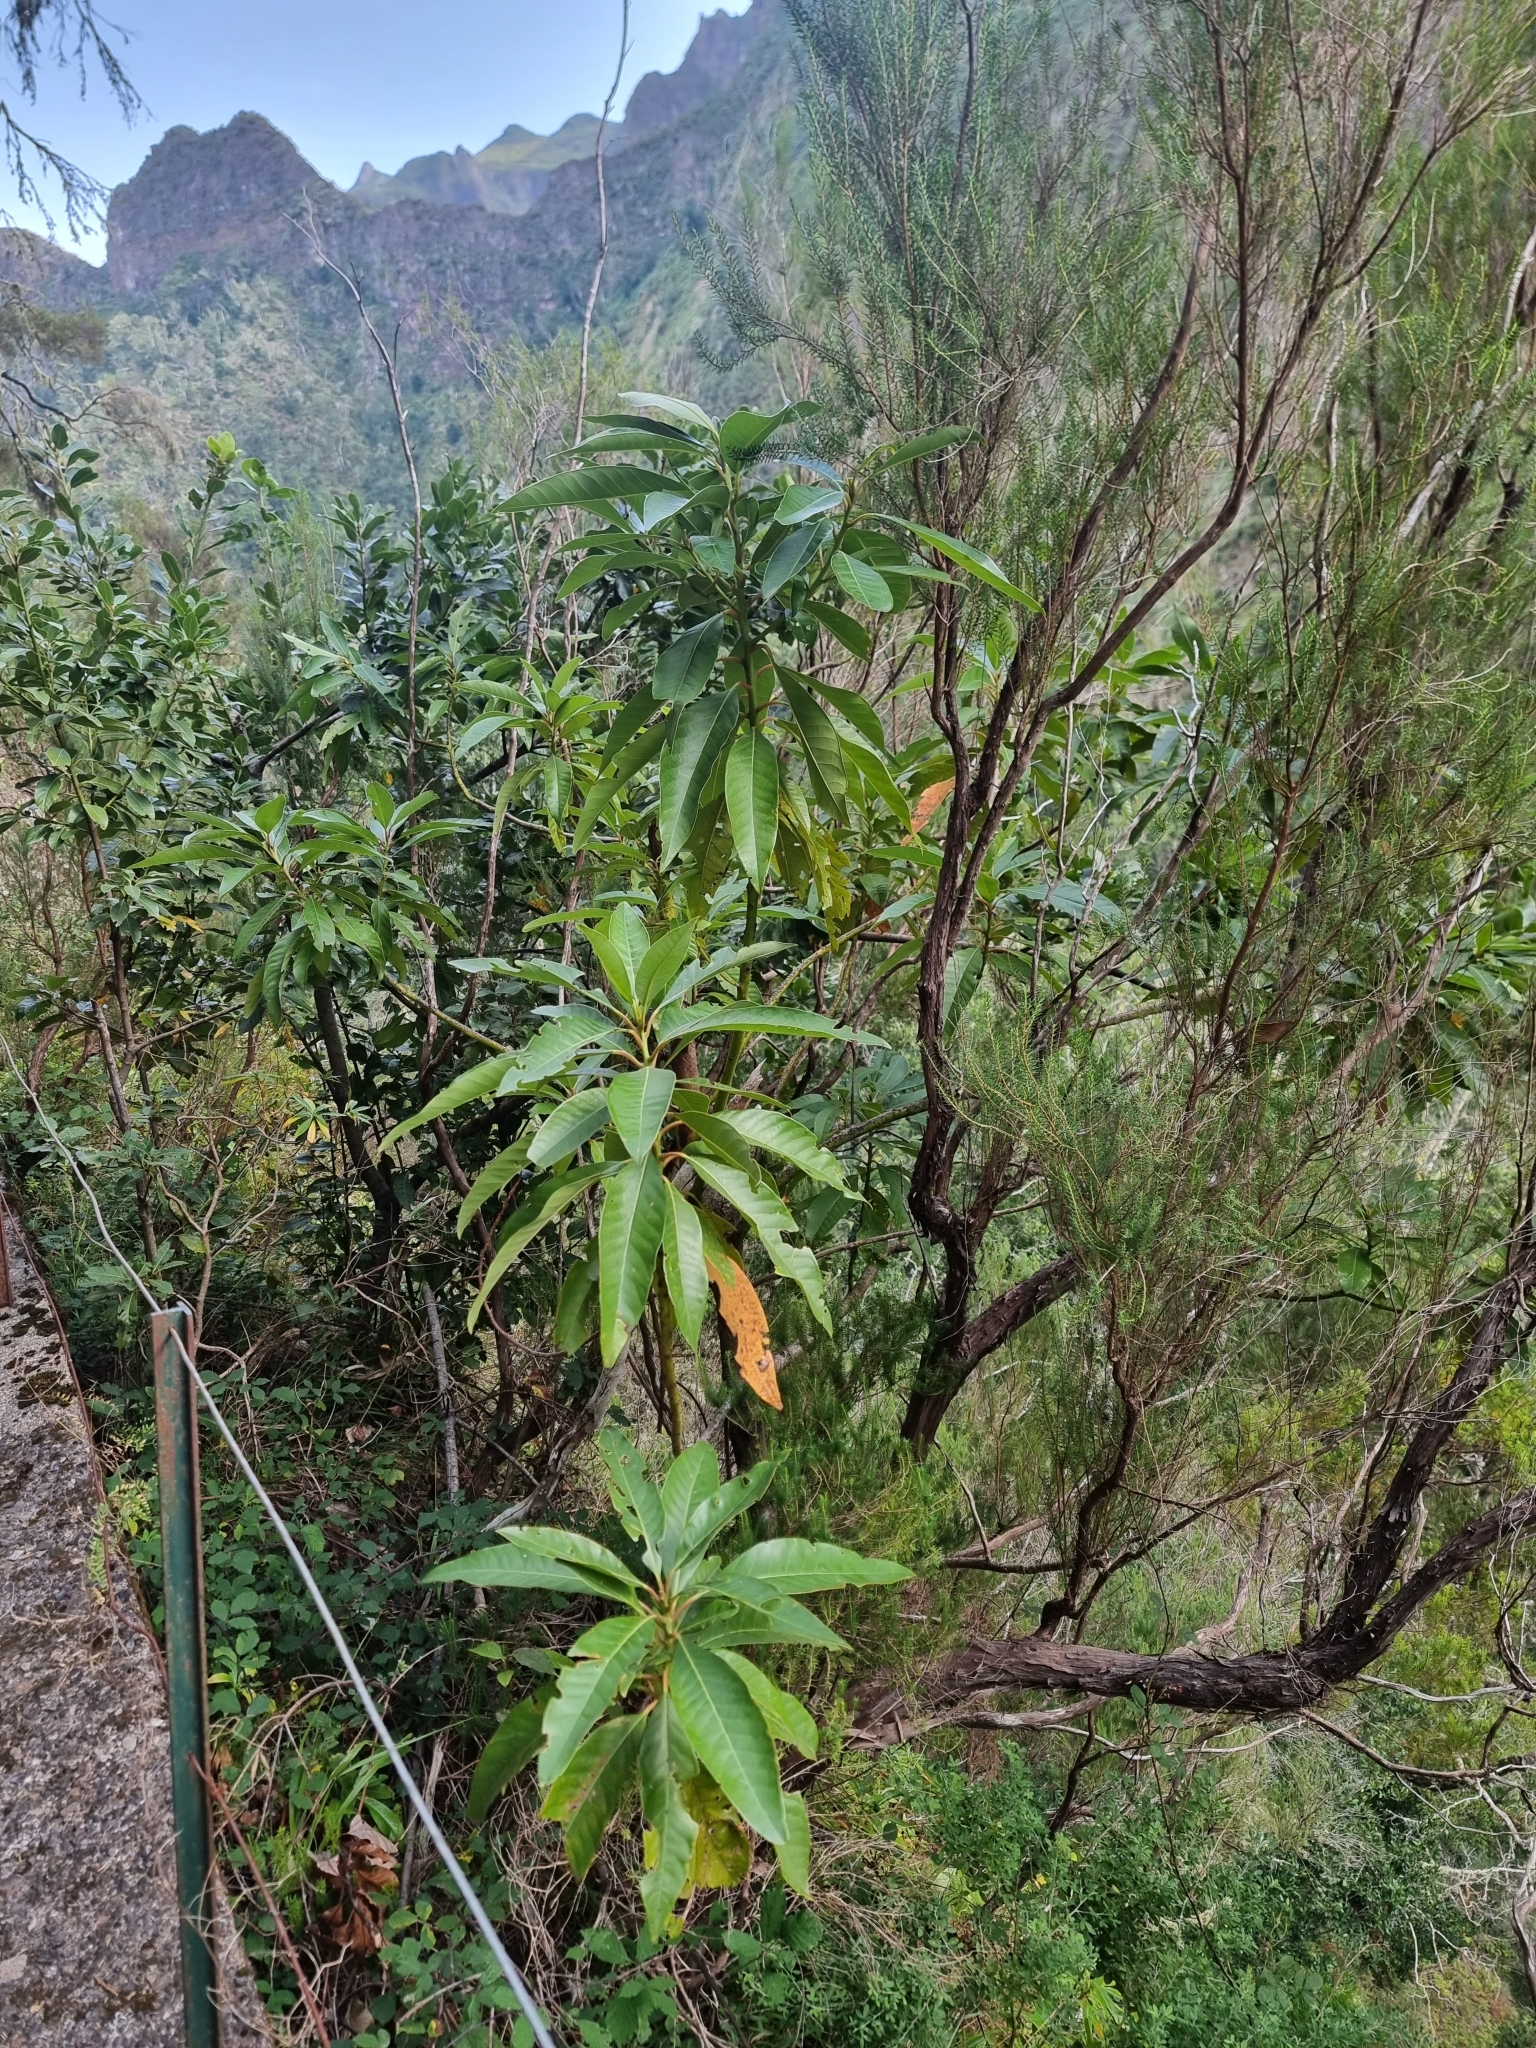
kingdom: Plantae
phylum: Tracheophyta
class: Magnoliopsida
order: Laurales
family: Lauraceae
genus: Persea
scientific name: Persea indica
